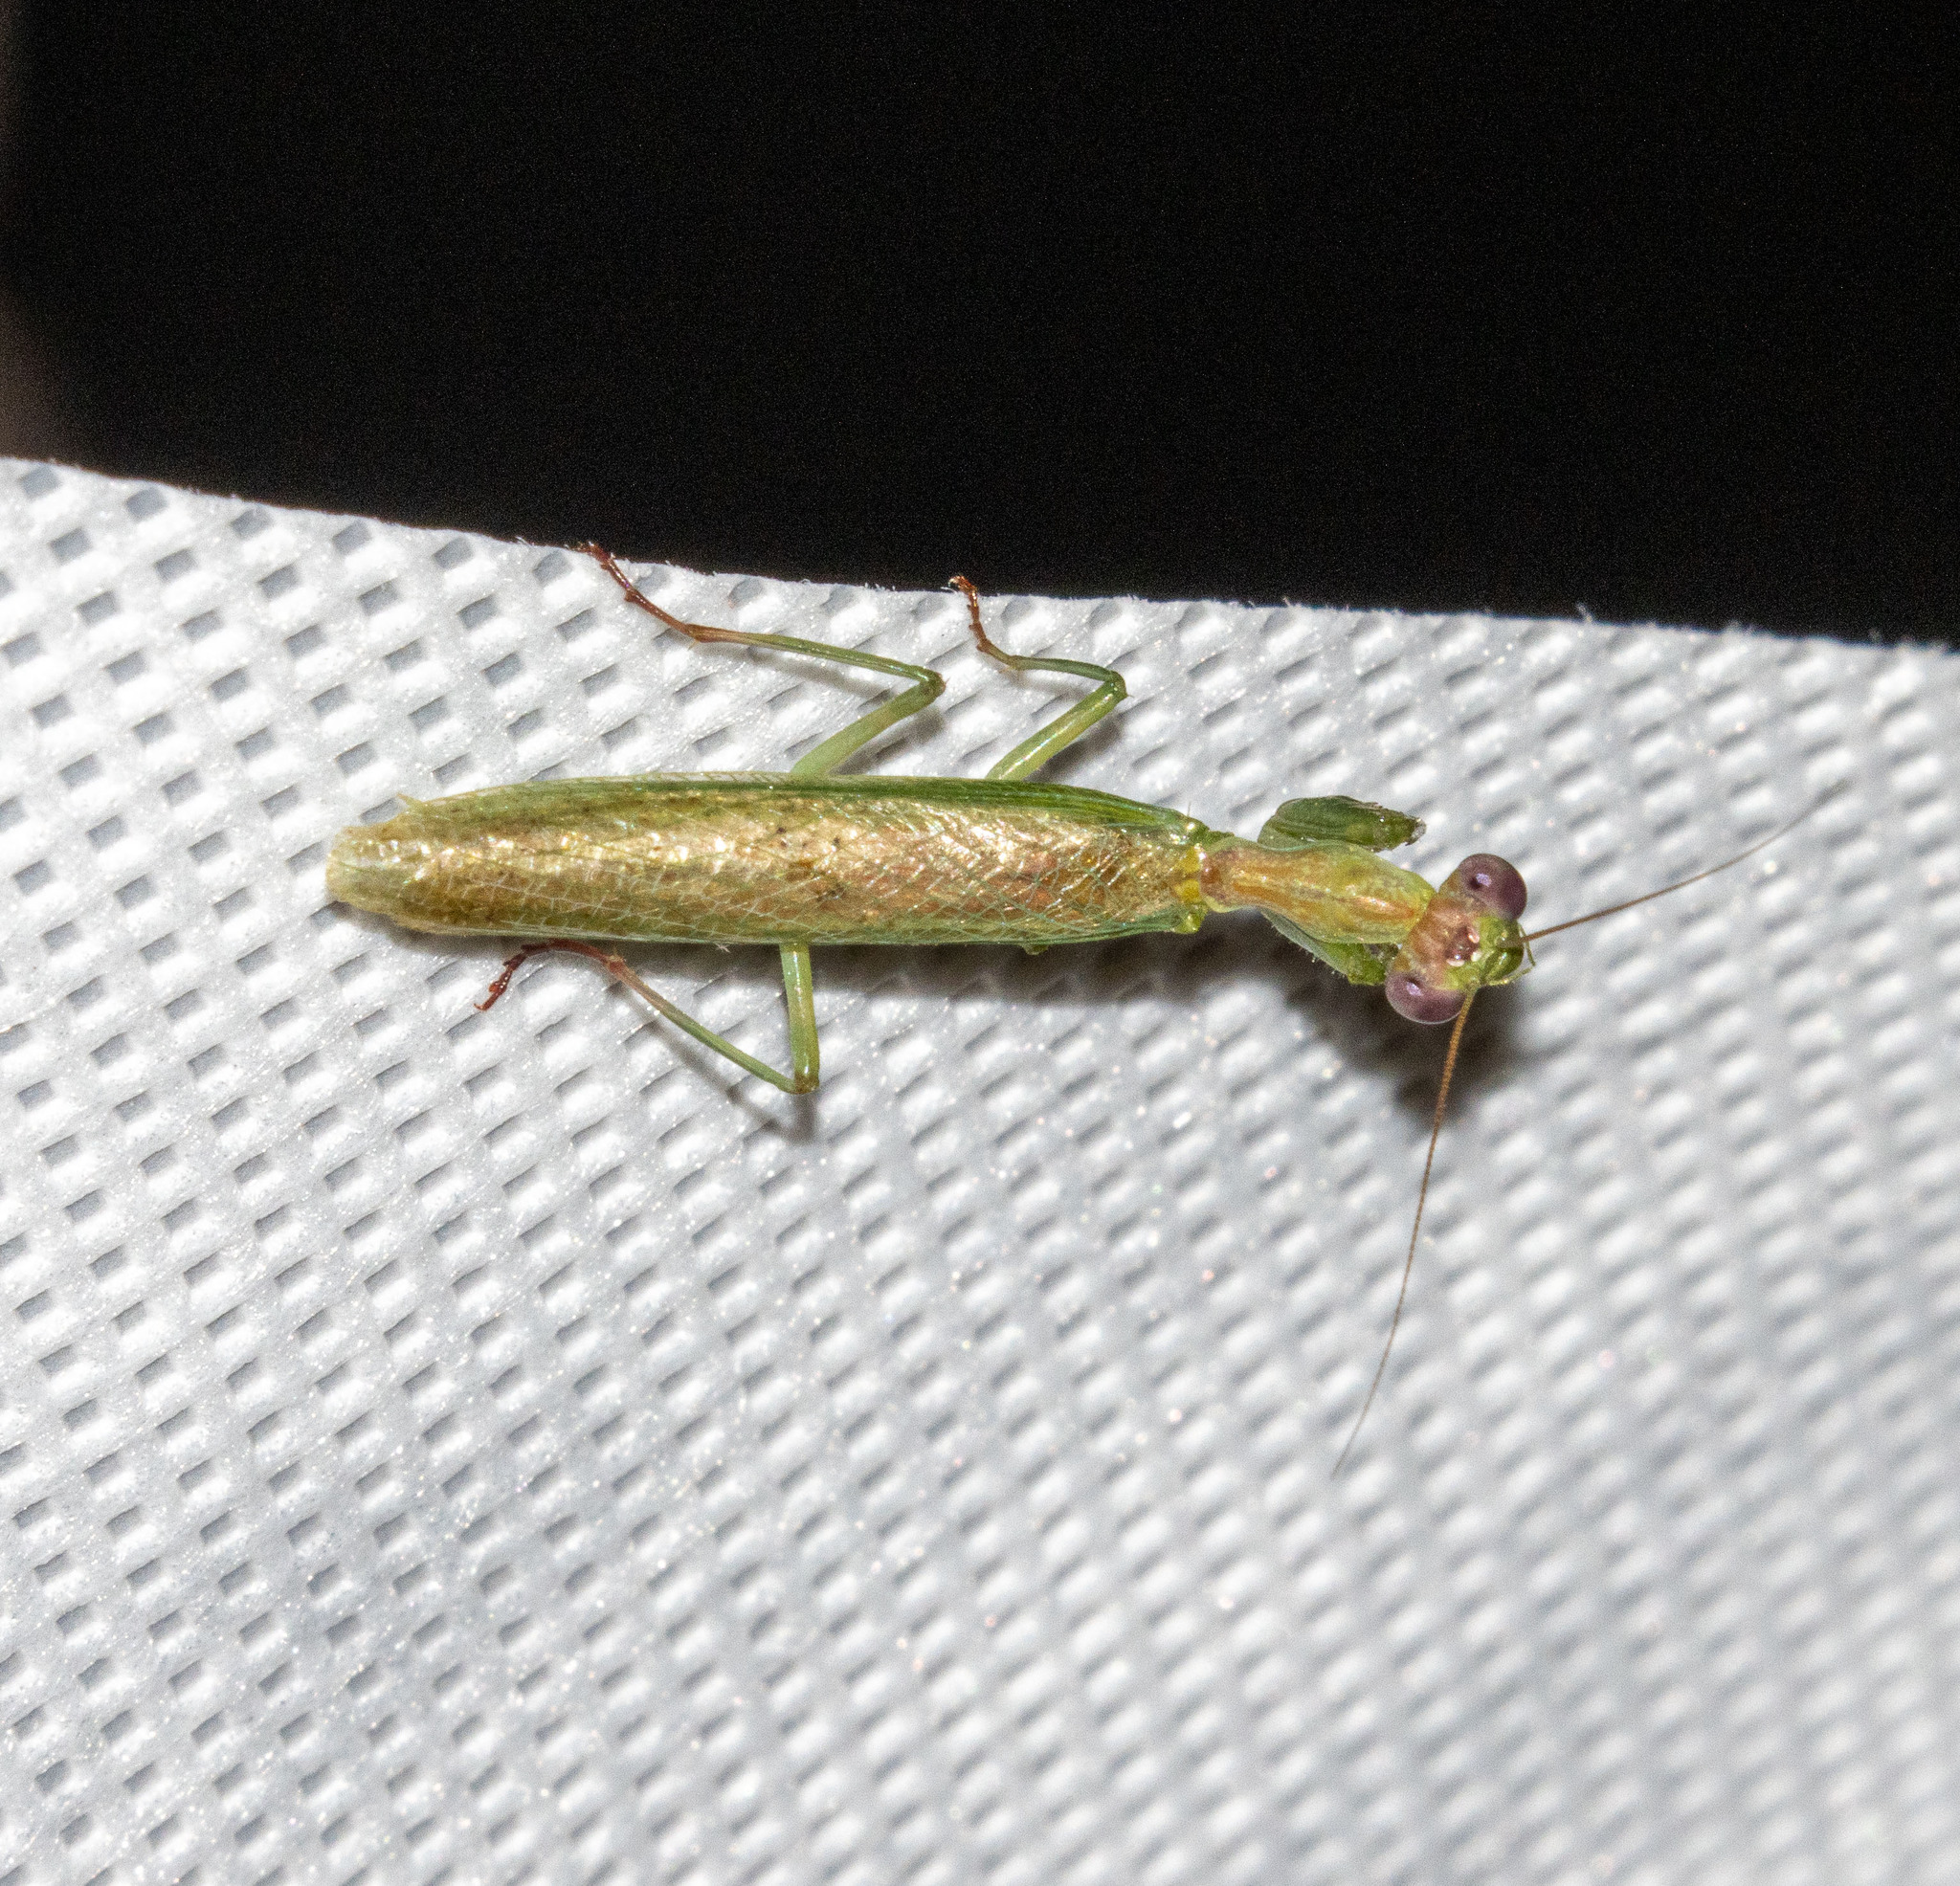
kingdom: Animalia
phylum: Arthropoda
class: Insecta
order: Mantodea
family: Acanthopidae
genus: Acontista
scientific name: Acontista
